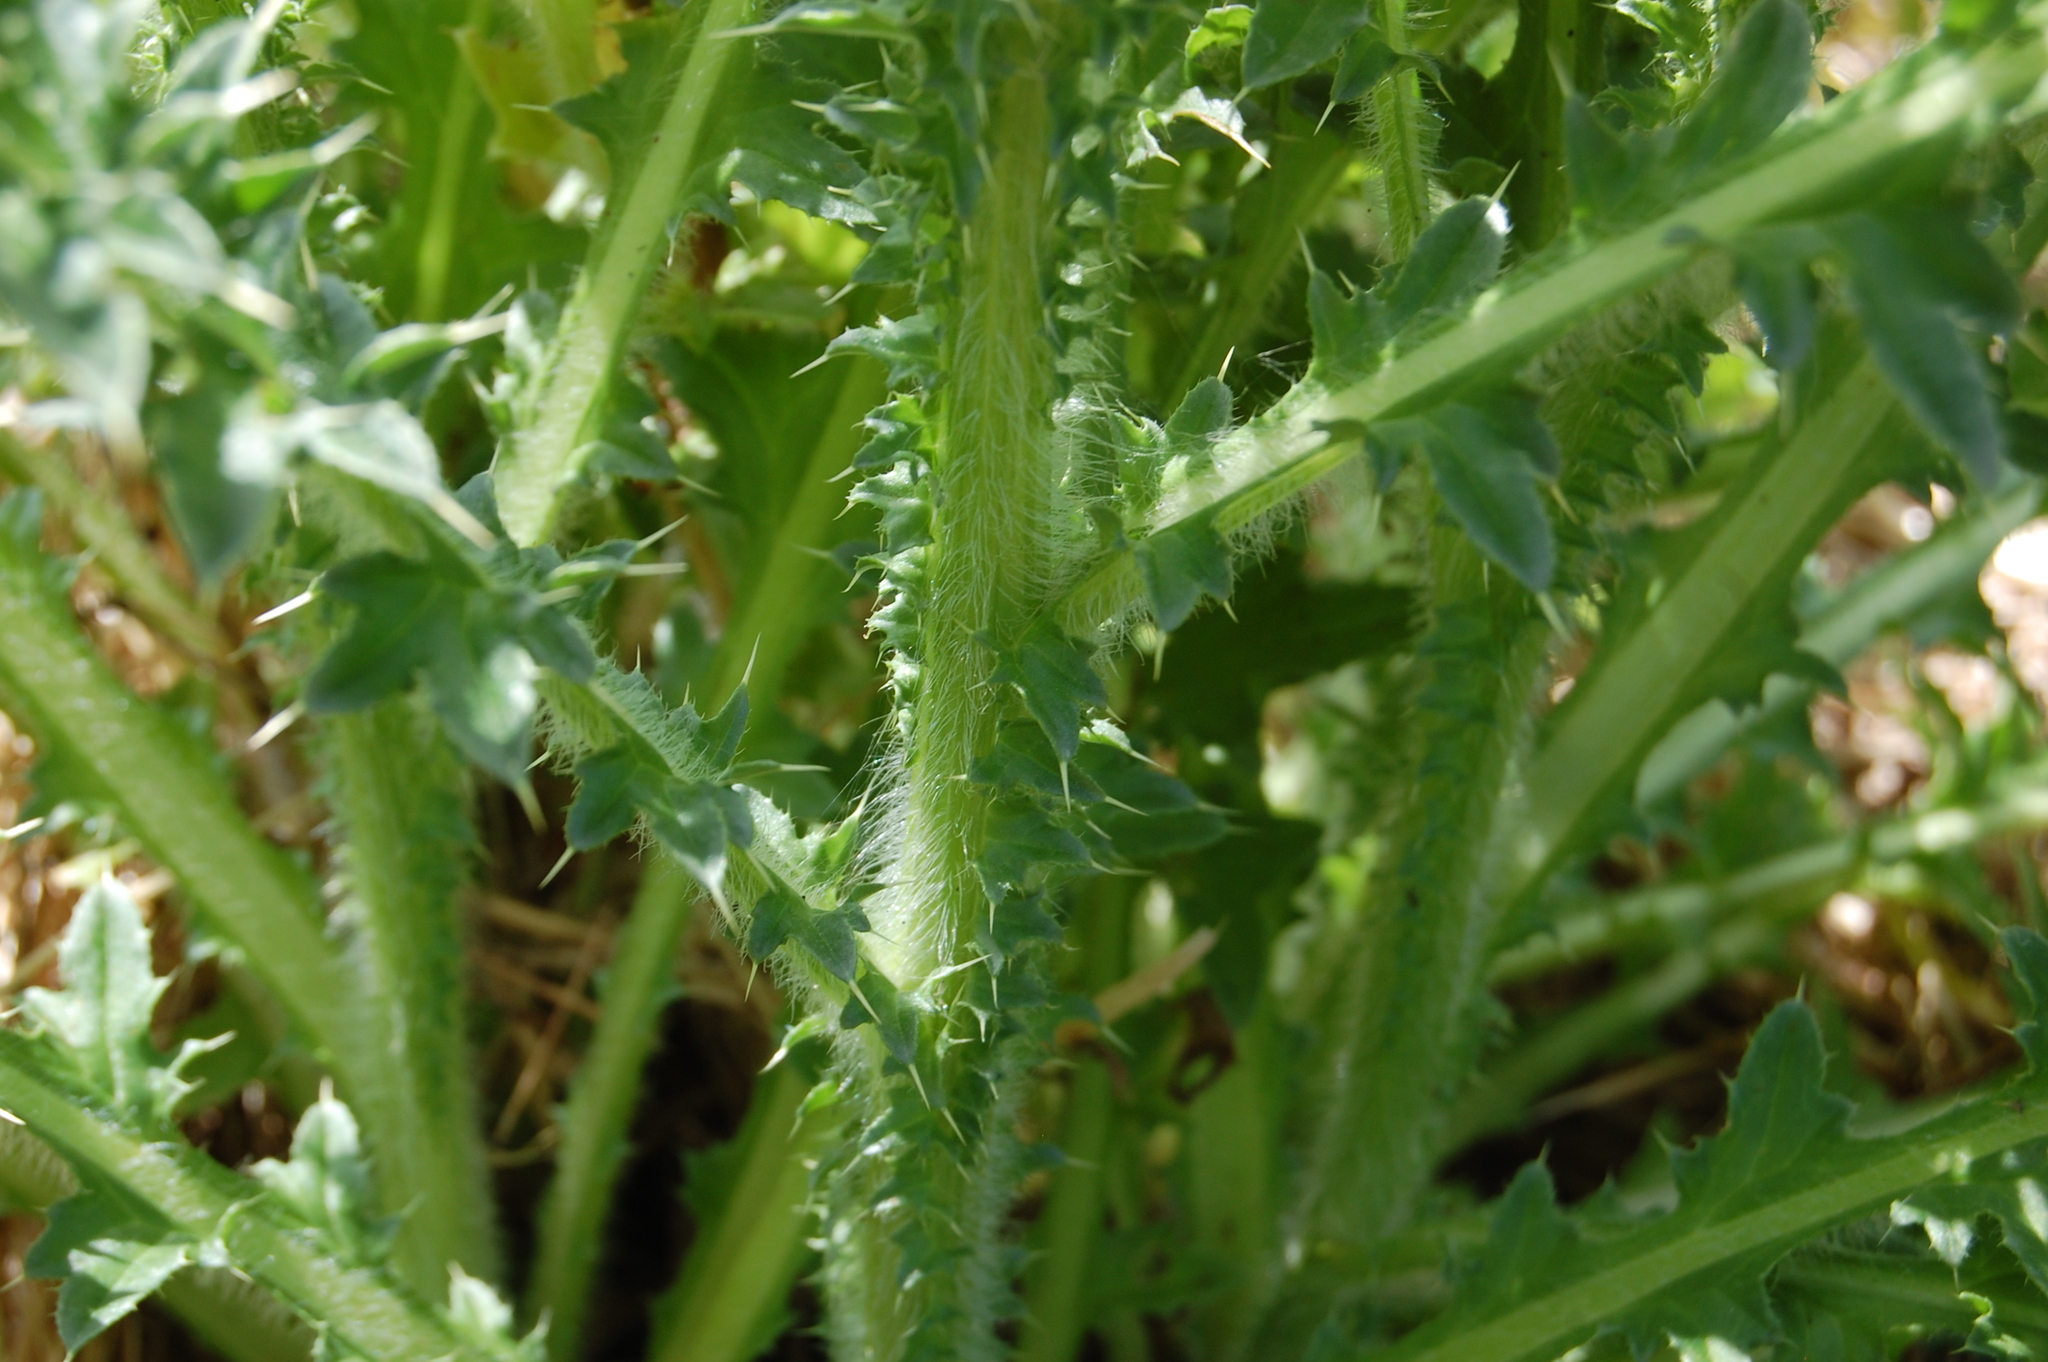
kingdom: Plantae
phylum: Tracheophyta
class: Magnoliopsida
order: Asterales
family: Asteraceae
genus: Carduus
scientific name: Carduus nutans
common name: Musk thistle
